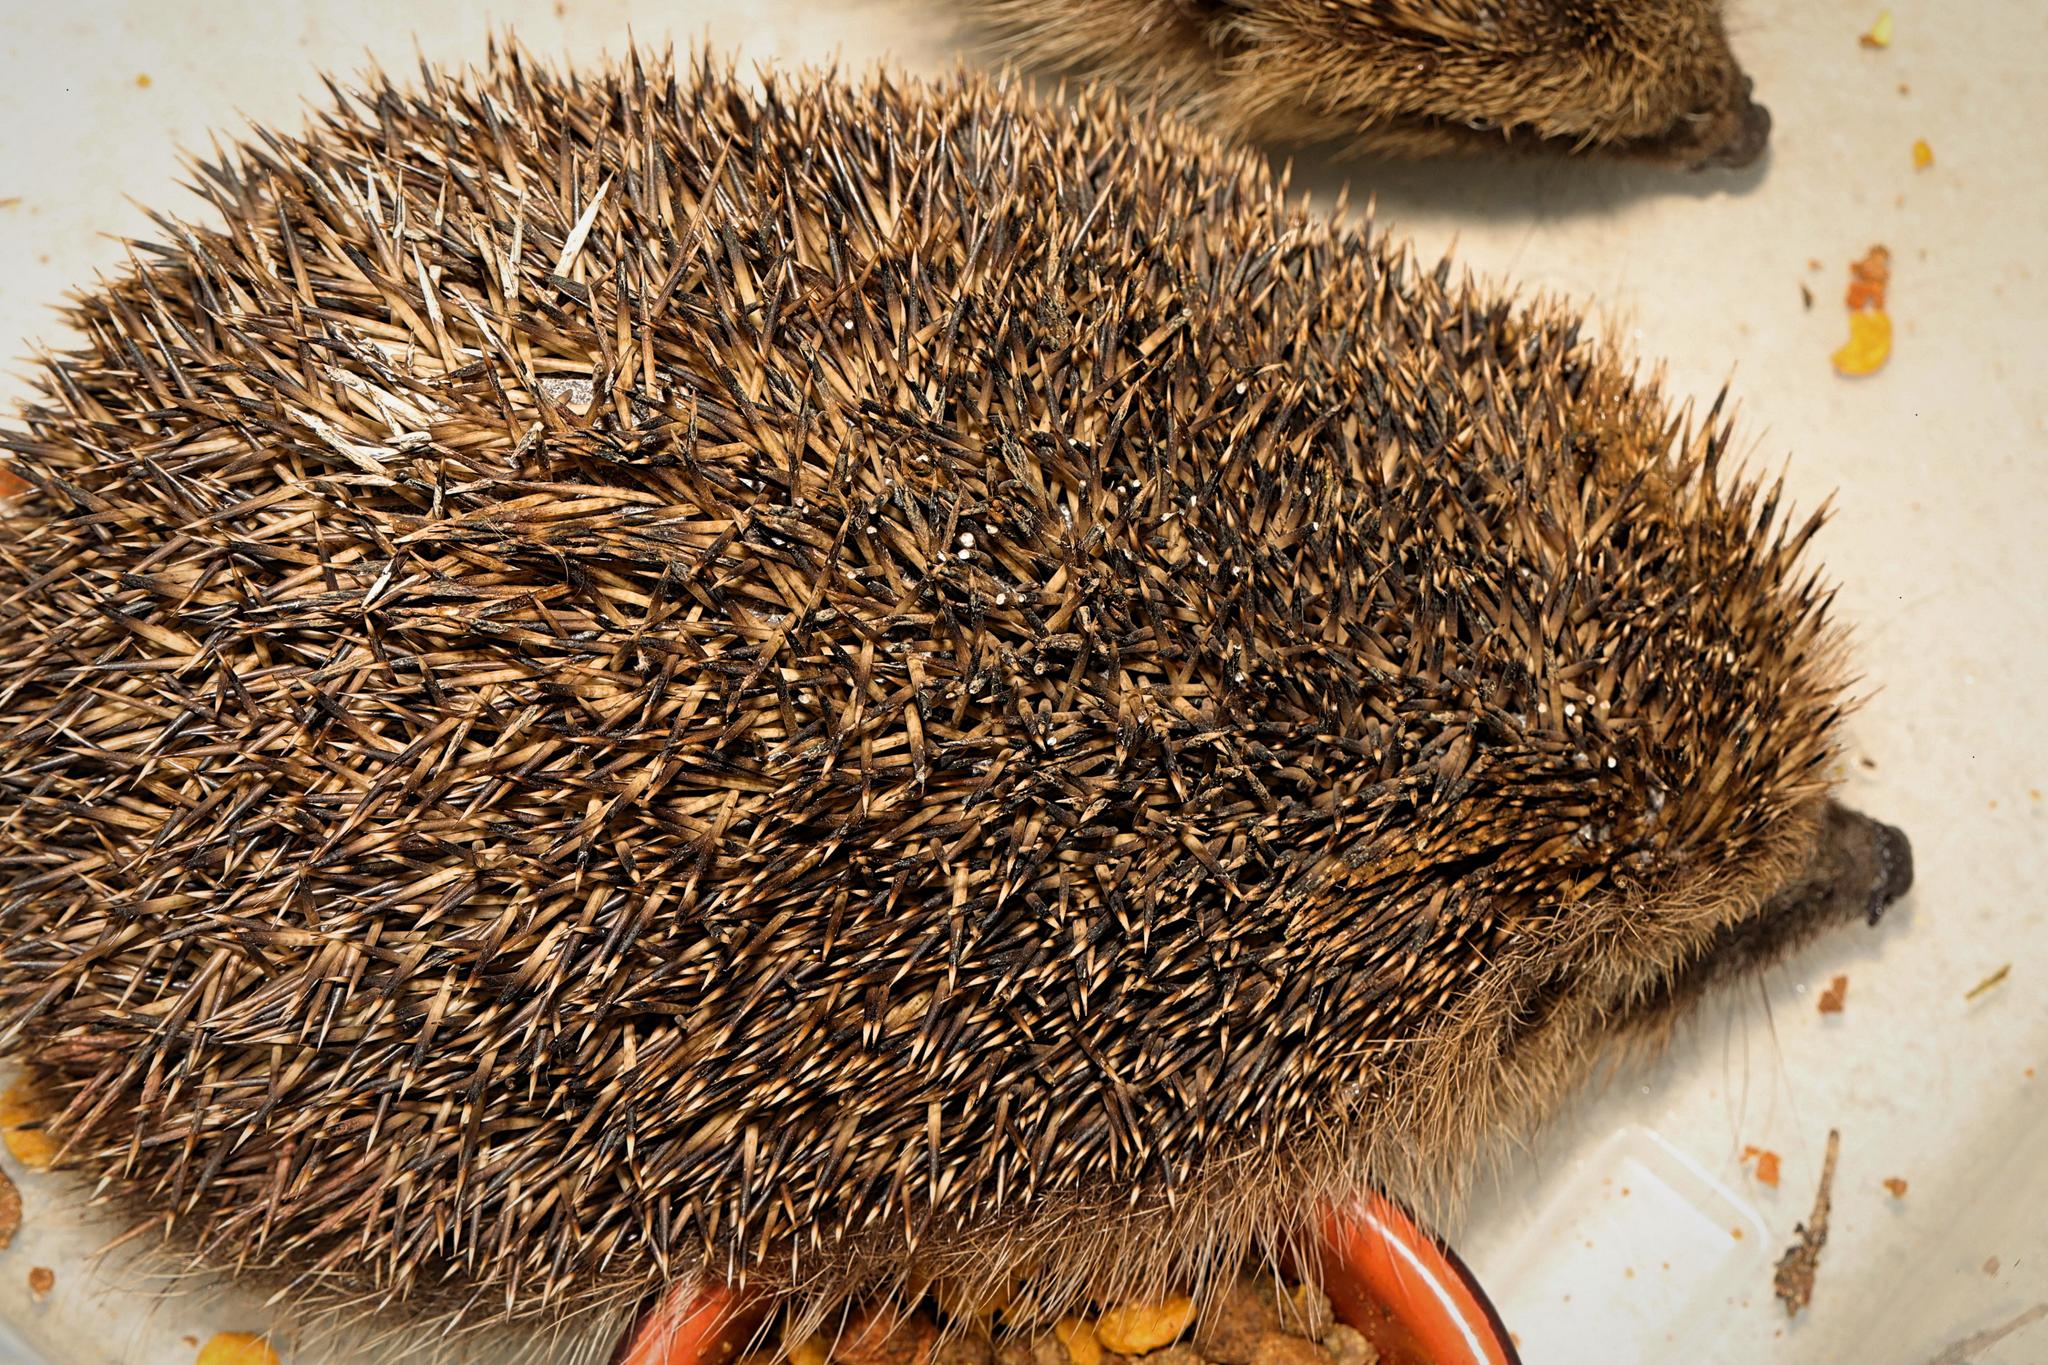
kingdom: Animalia
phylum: Chordata
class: Mammalia
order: Erinaceomorpha
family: Erinaceidae
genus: Erinaceus
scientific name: Erinaceus europaeus
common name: West european hedgehog
